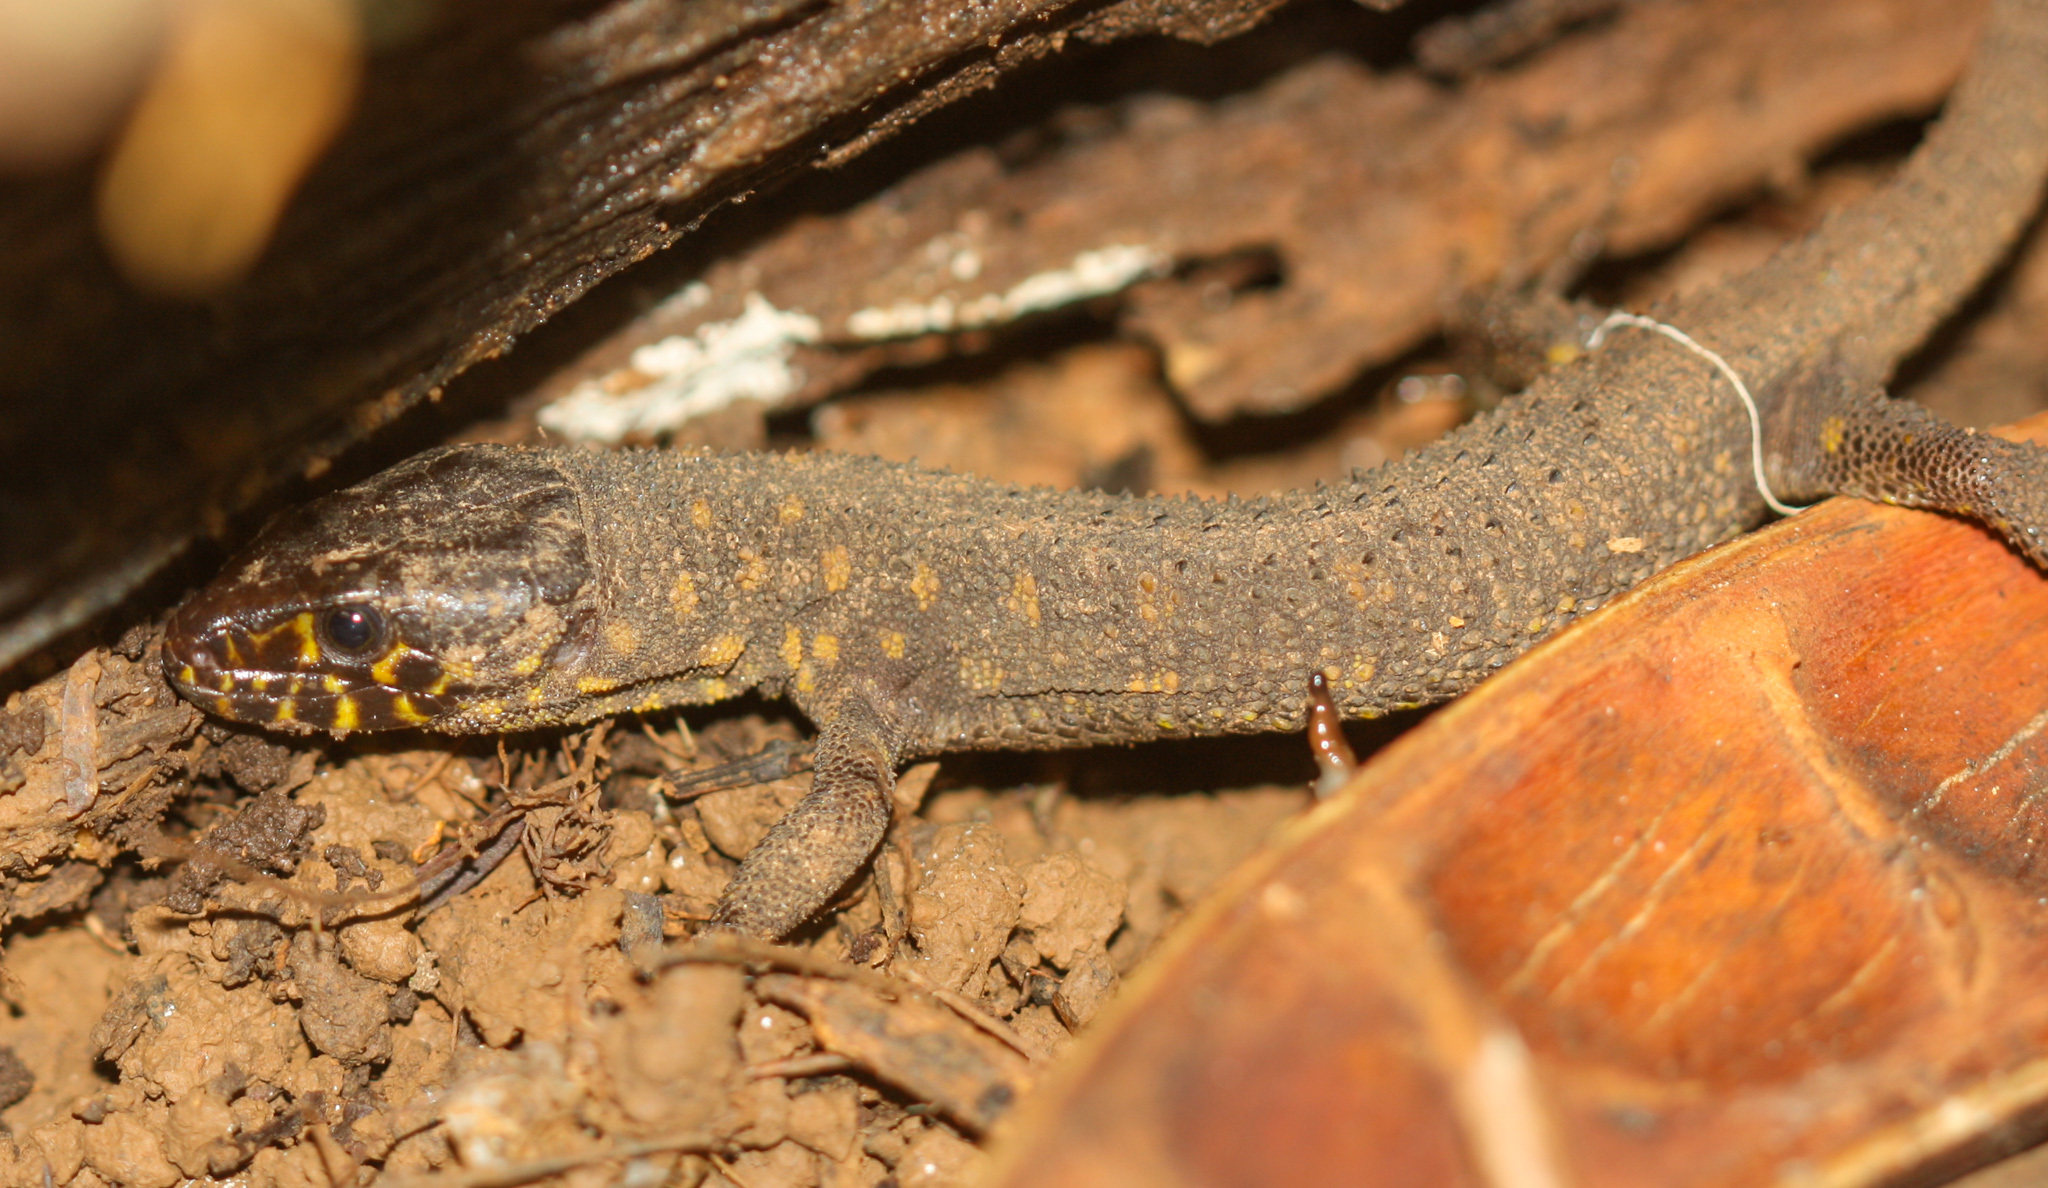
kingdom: Animalia
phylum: Chordata
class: Squamata
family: Xantusiidae
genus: Lepidophyma
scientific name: Lepidophyma flavimaculatum
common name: Yellow-spotted night lizard
